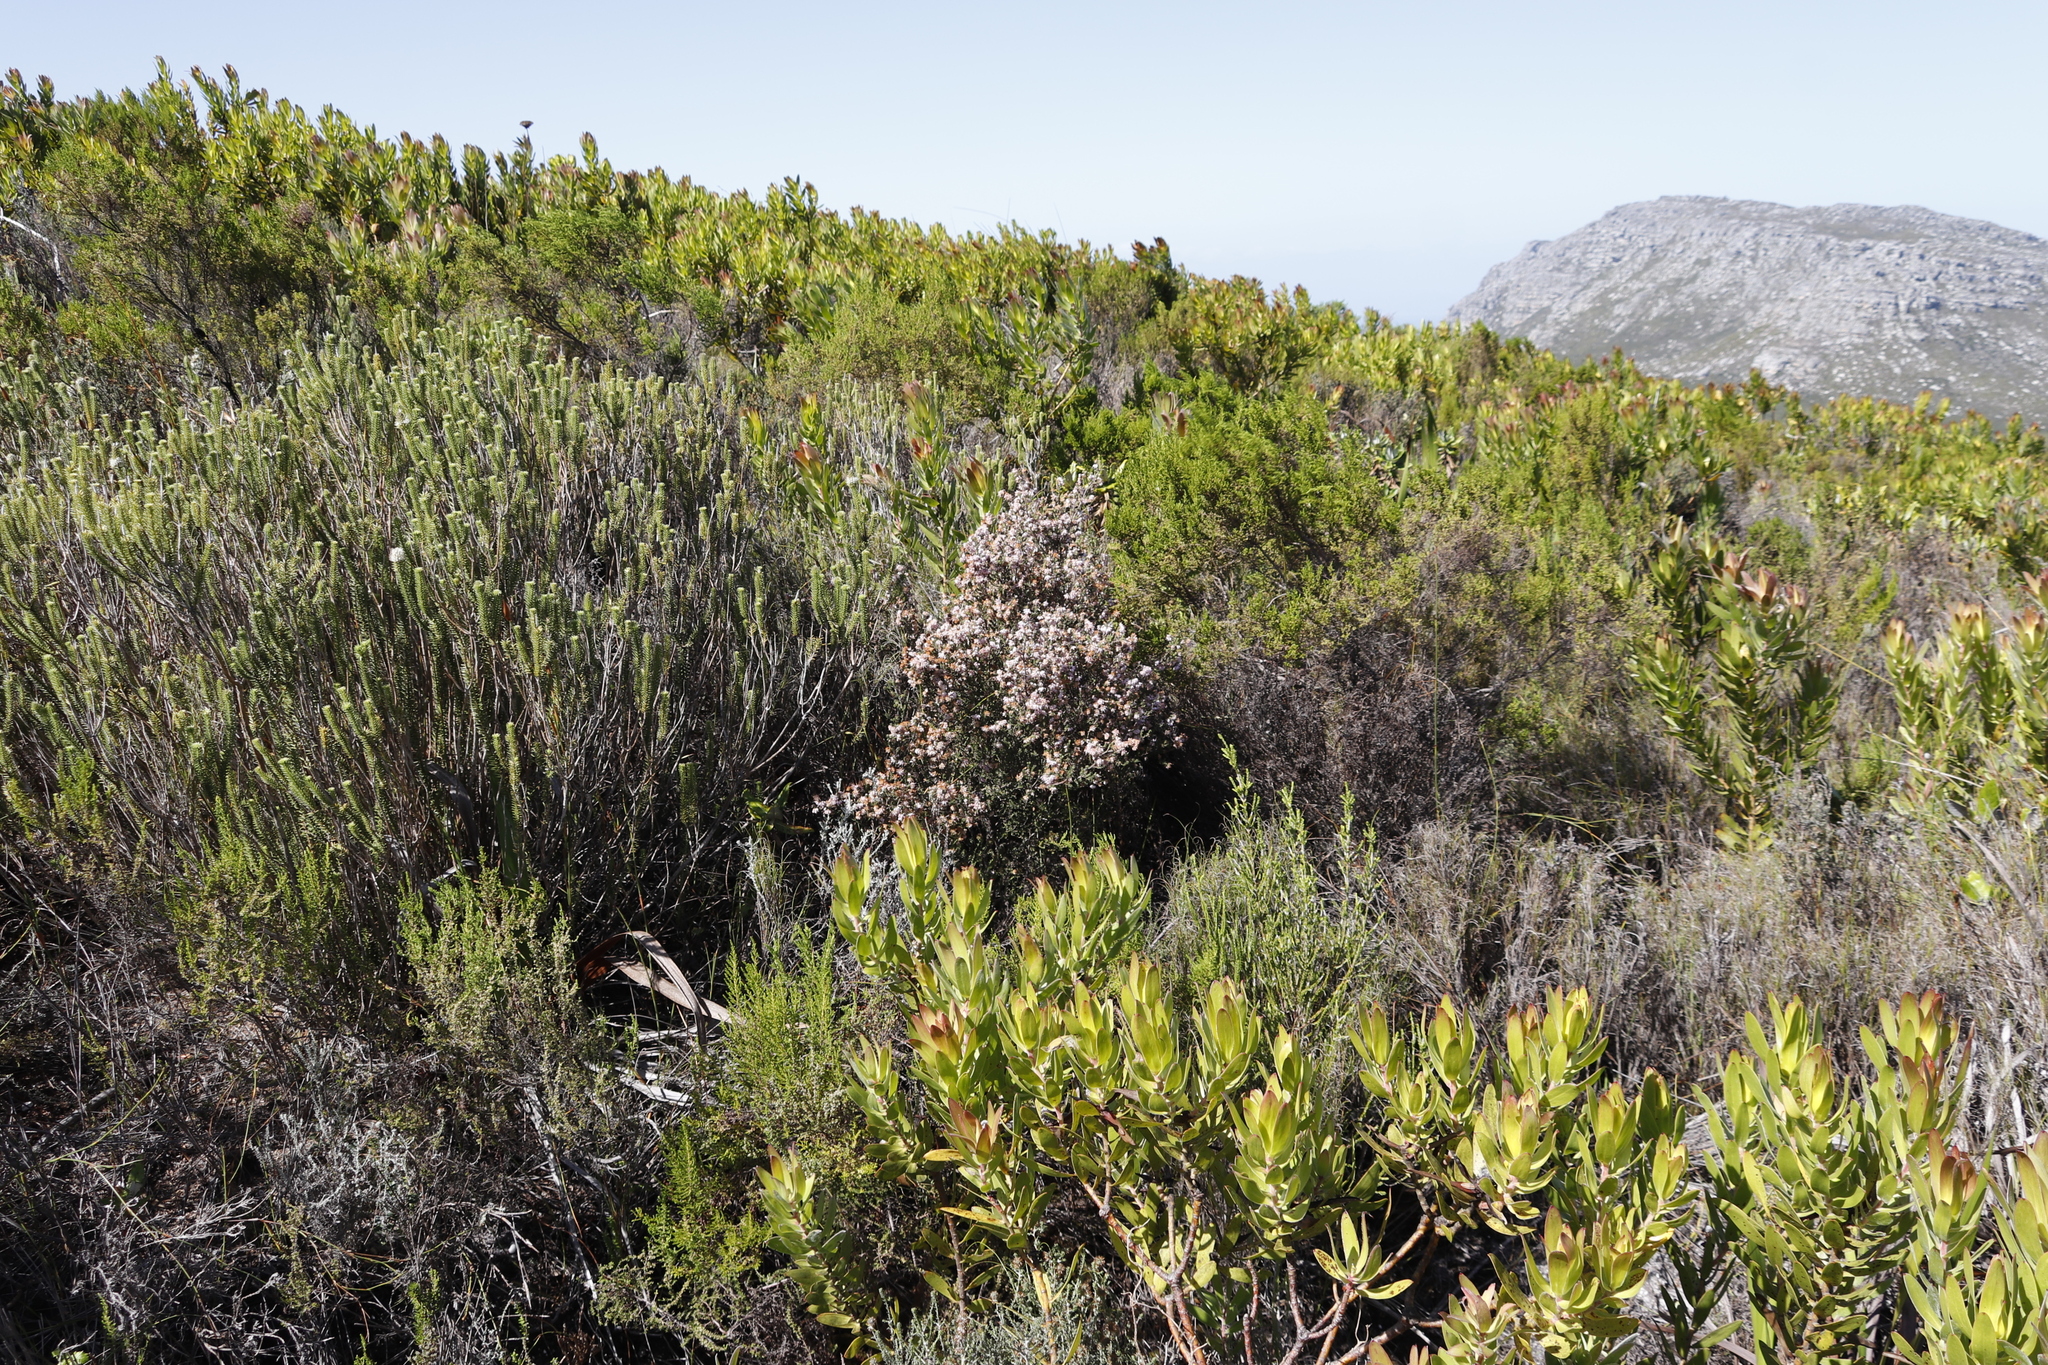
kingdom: Plantae
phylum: Tracheophyta
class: Magnoliopsida
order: Ericales
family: Ericaceae
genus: Erica
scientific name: Erica ericoides
